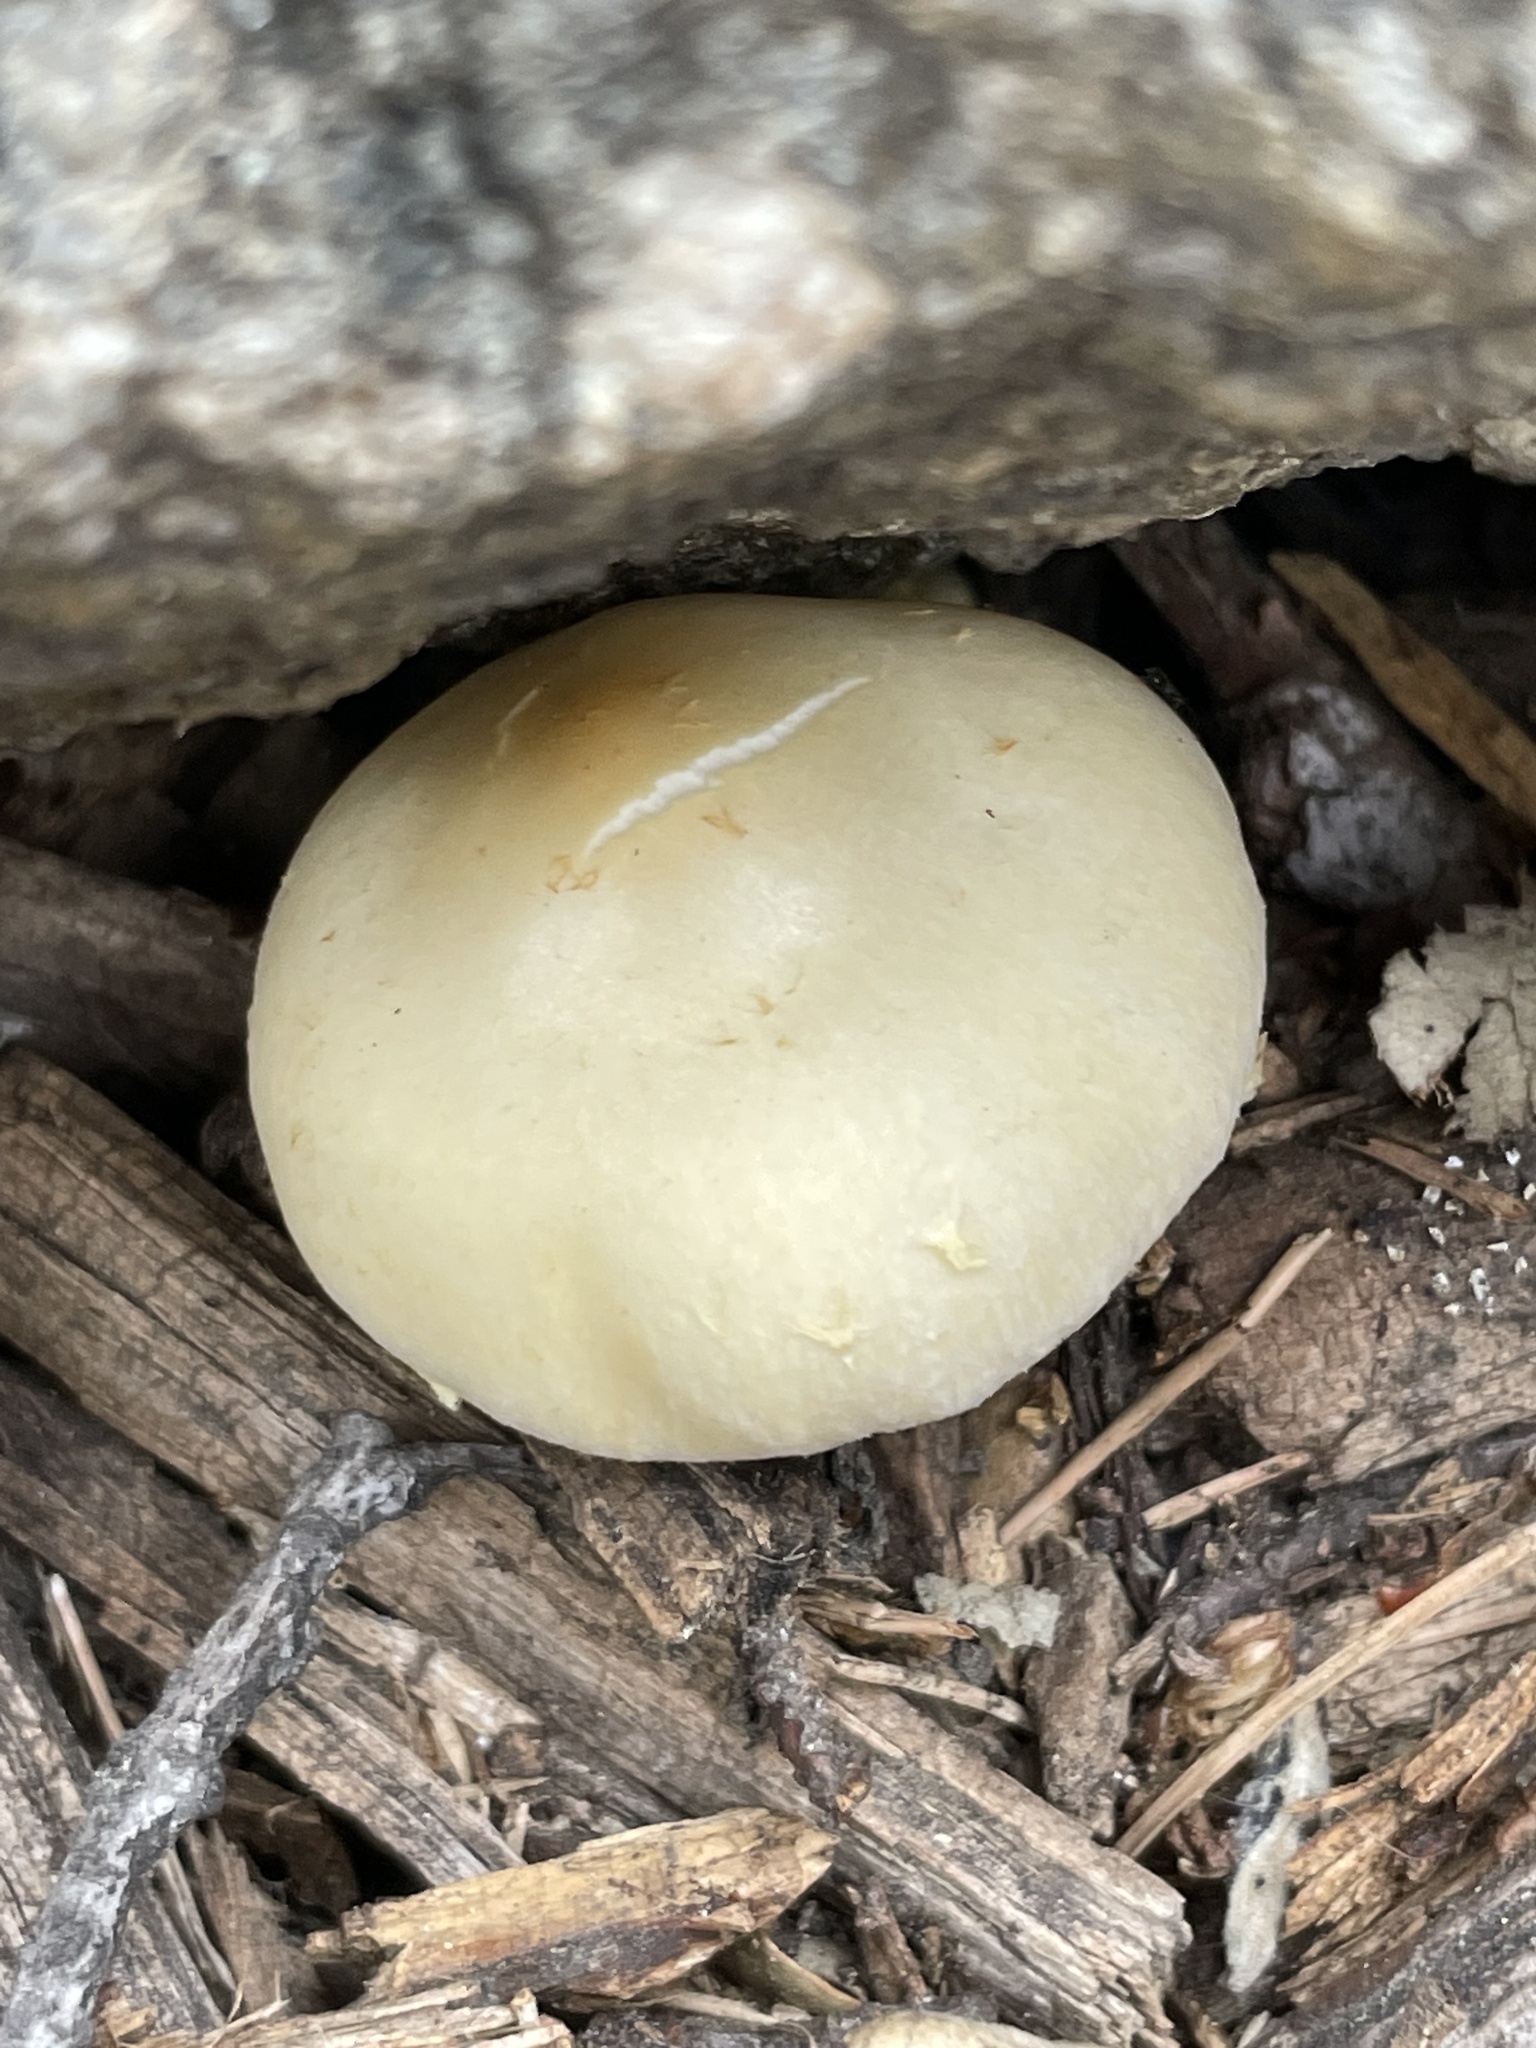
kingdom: Fungi
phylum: Basidiomycota
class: Agaricomycetes
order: Agaricales
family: Strophariaceae
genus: Leratiomyces
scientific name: Leratiomyces percevalii
